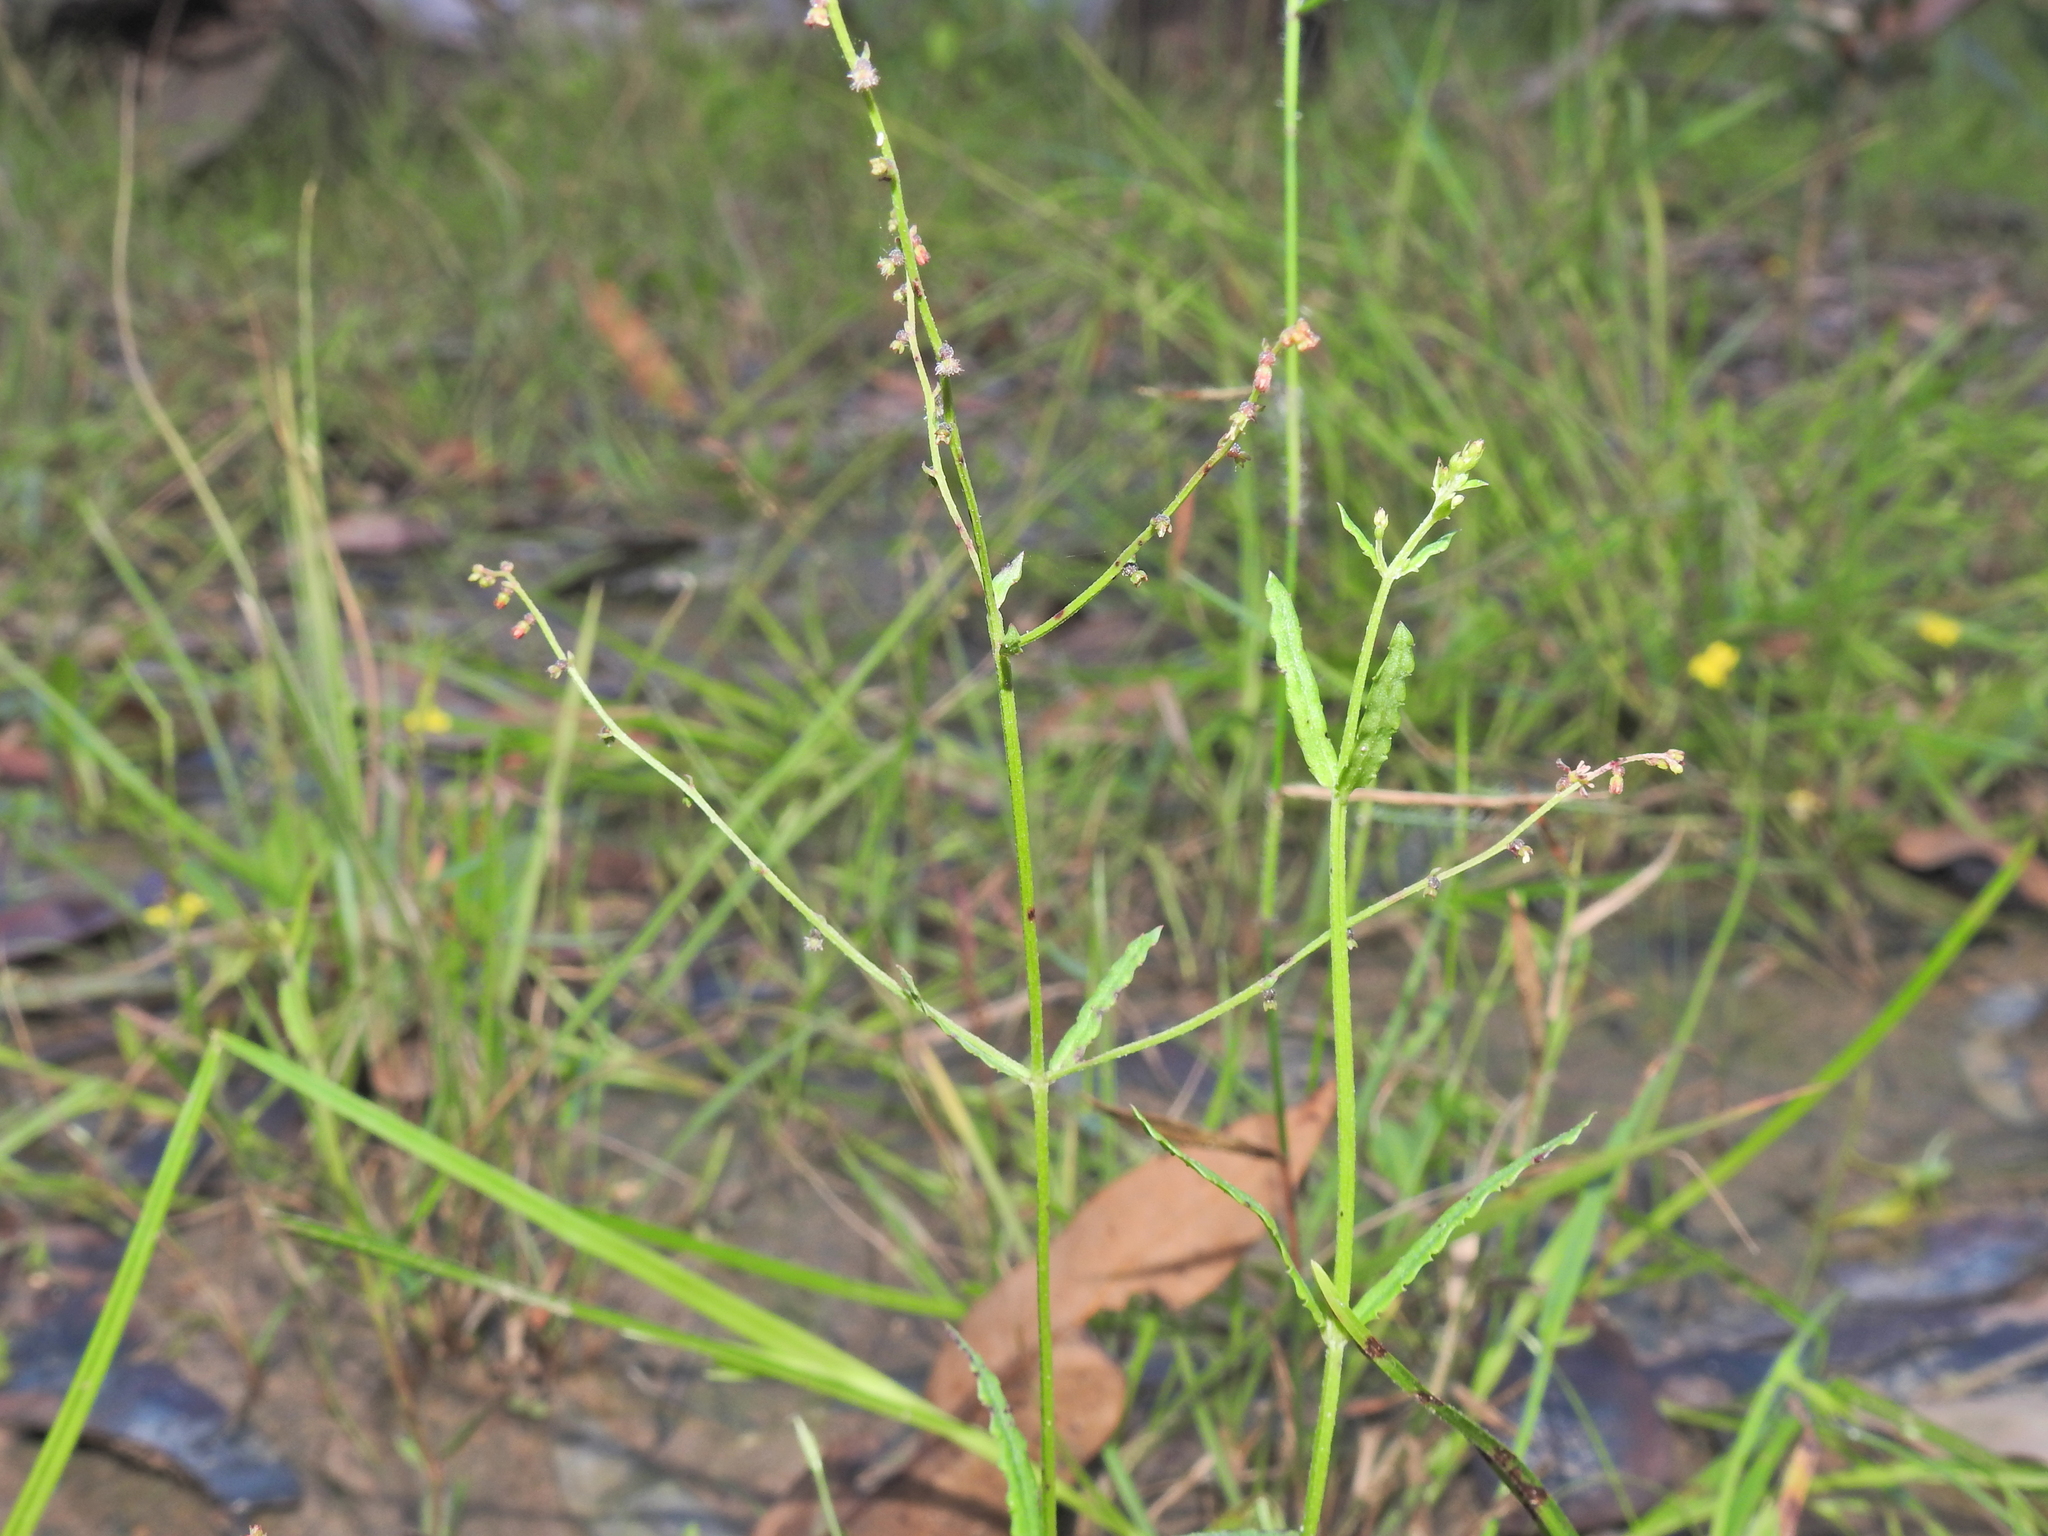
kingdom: Plantae
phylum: Tracheophyta
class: Magnoliopsida
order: Saxifragales
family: Haloragaceae
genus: Gonocarpus
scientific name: Gonocarpus chinensis
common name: Chinese raspwort
